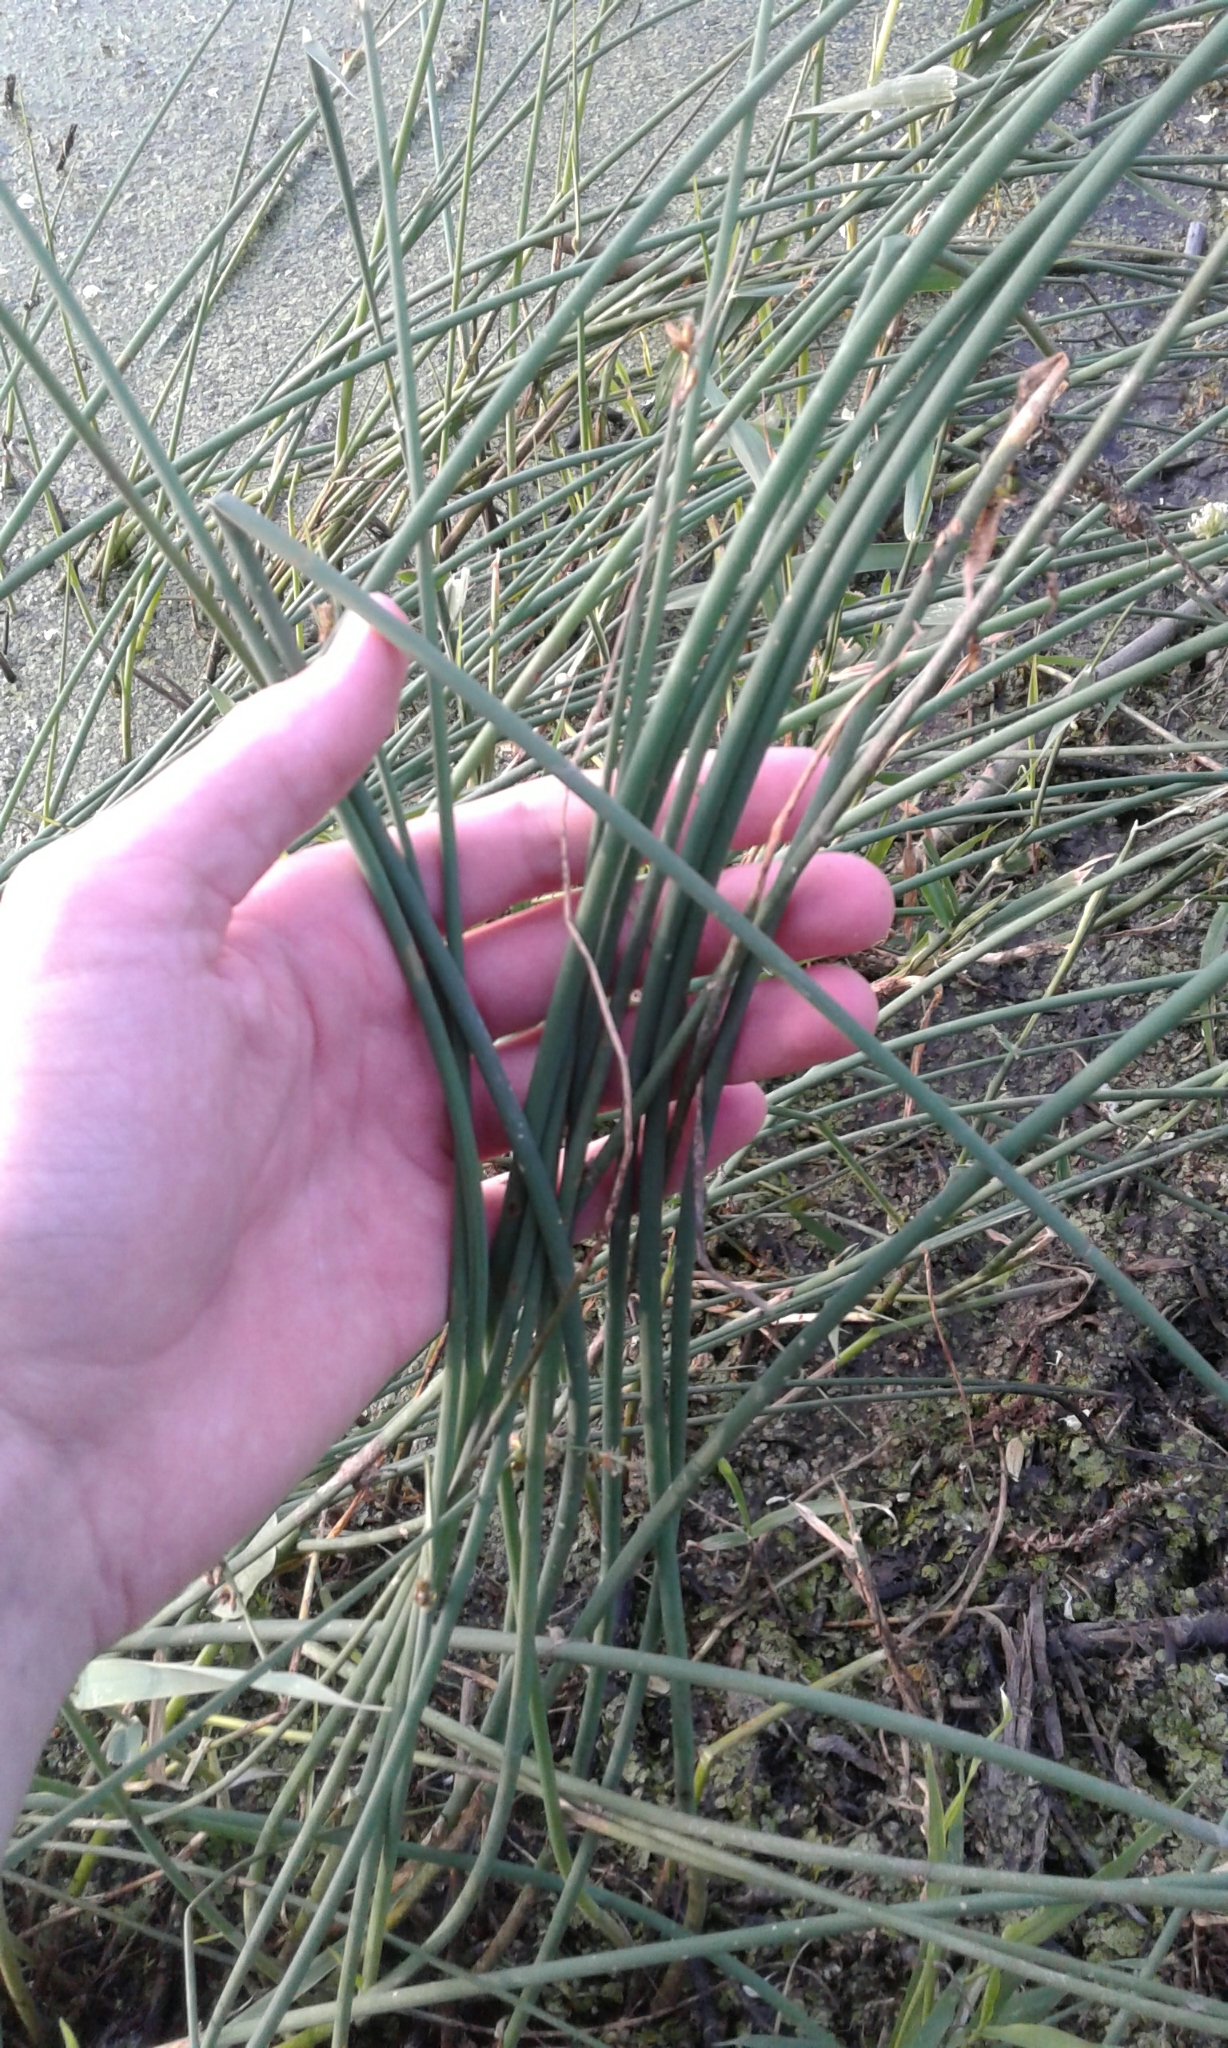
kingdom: Plantae
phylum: Tracheophyta
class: Liliopsida
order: Poales
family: Cyperaceae
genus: Schoenoplectus
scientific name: Schoenoplectus tabernaemontani
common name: Grey club-rush
